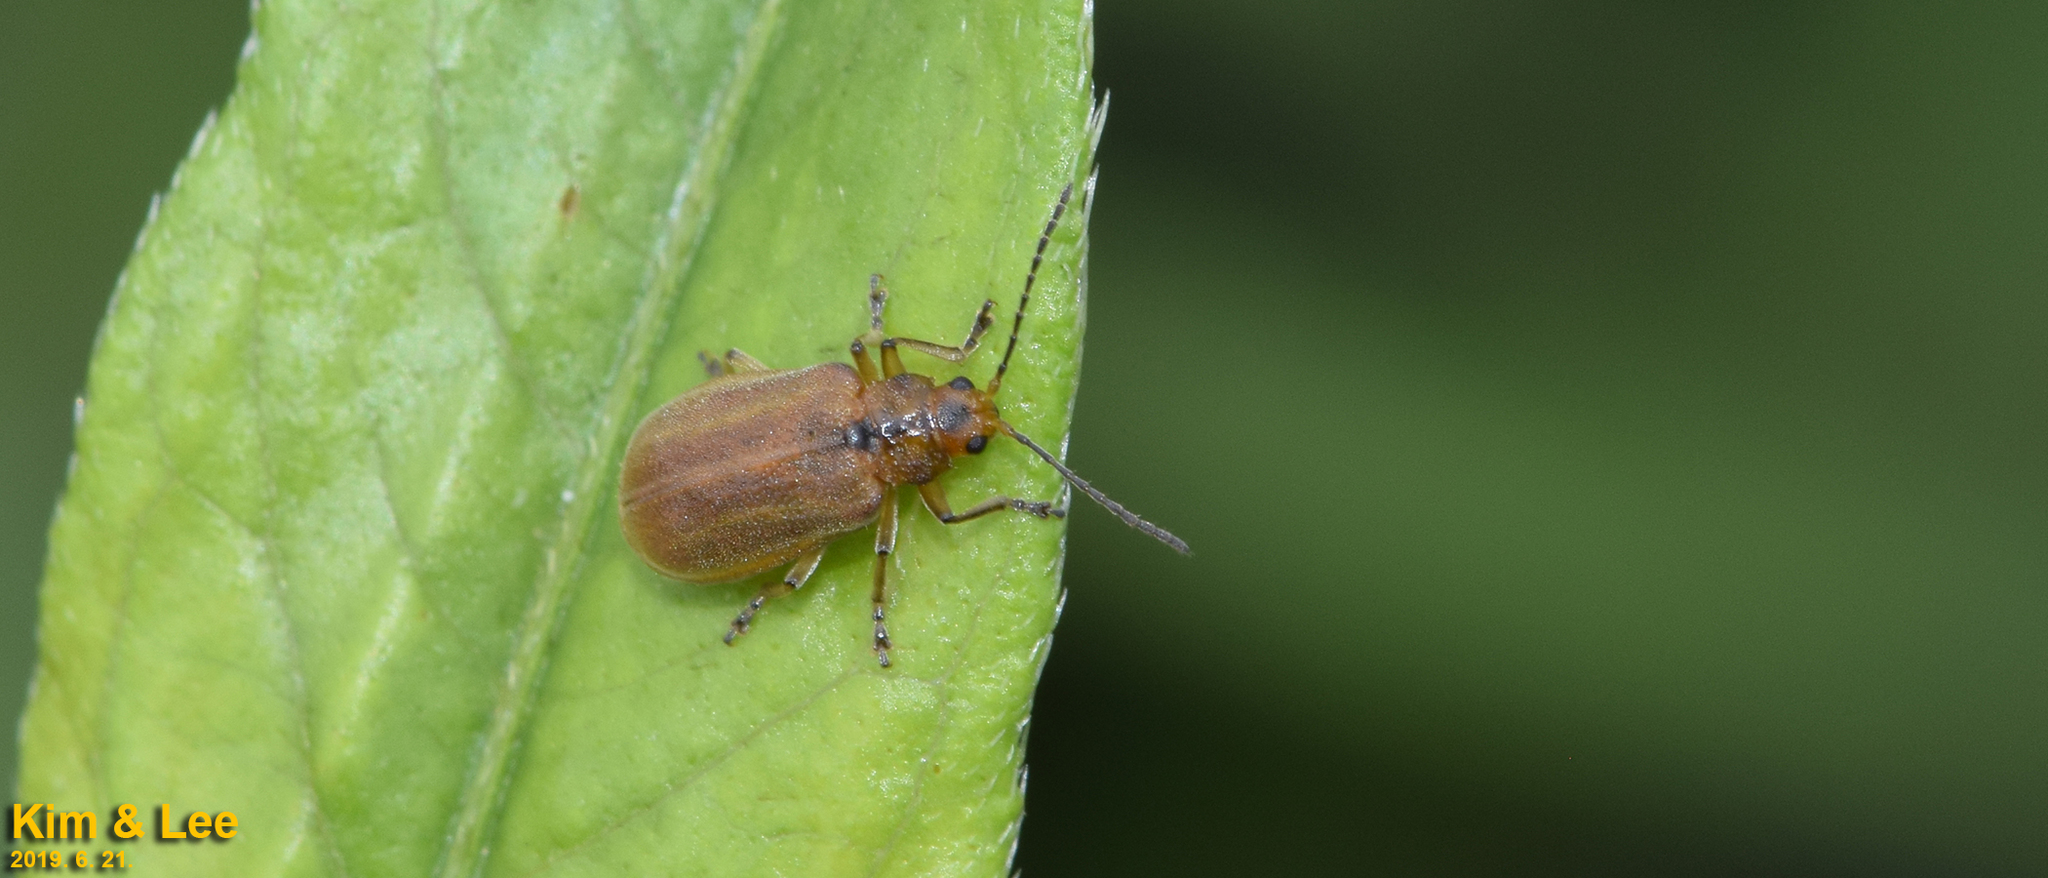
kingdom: Animalia
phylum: Arthropoda
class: Insecta
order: Coleoptera
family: Chrysomelidae
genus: Galerucella
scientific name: Galerucella grisescens
